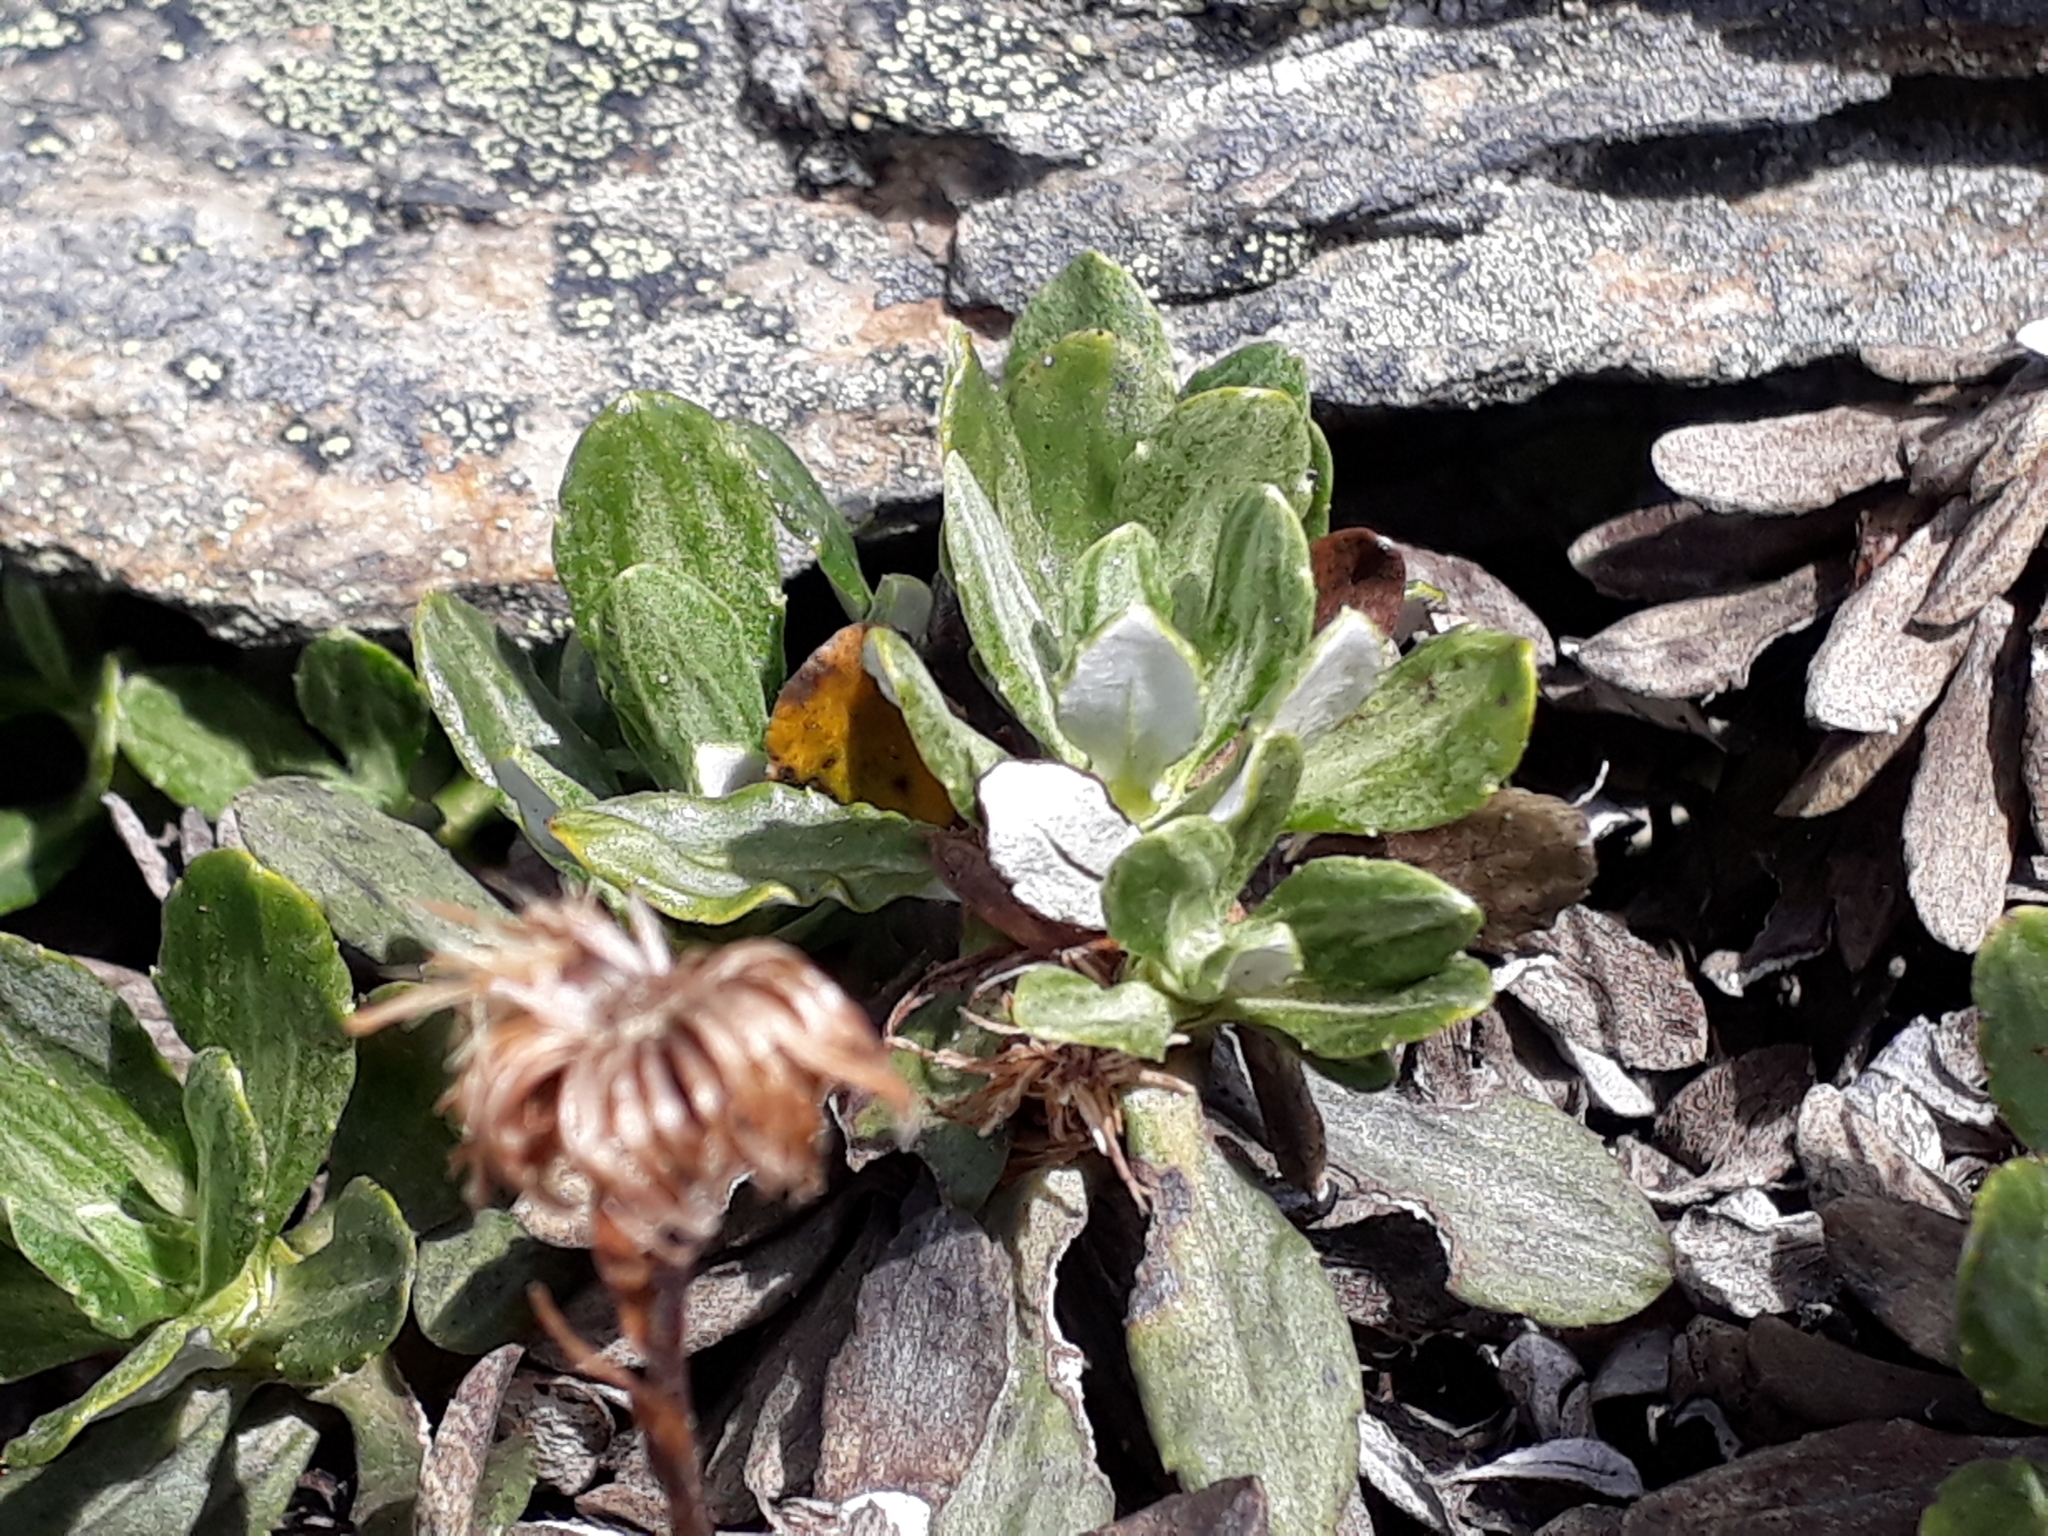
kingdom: Plantae
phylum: Tracheophyta
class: Magnoliopsida
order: Asterales
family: Asteraceae
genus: Celmisia
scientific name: Celmisia brevifolia
